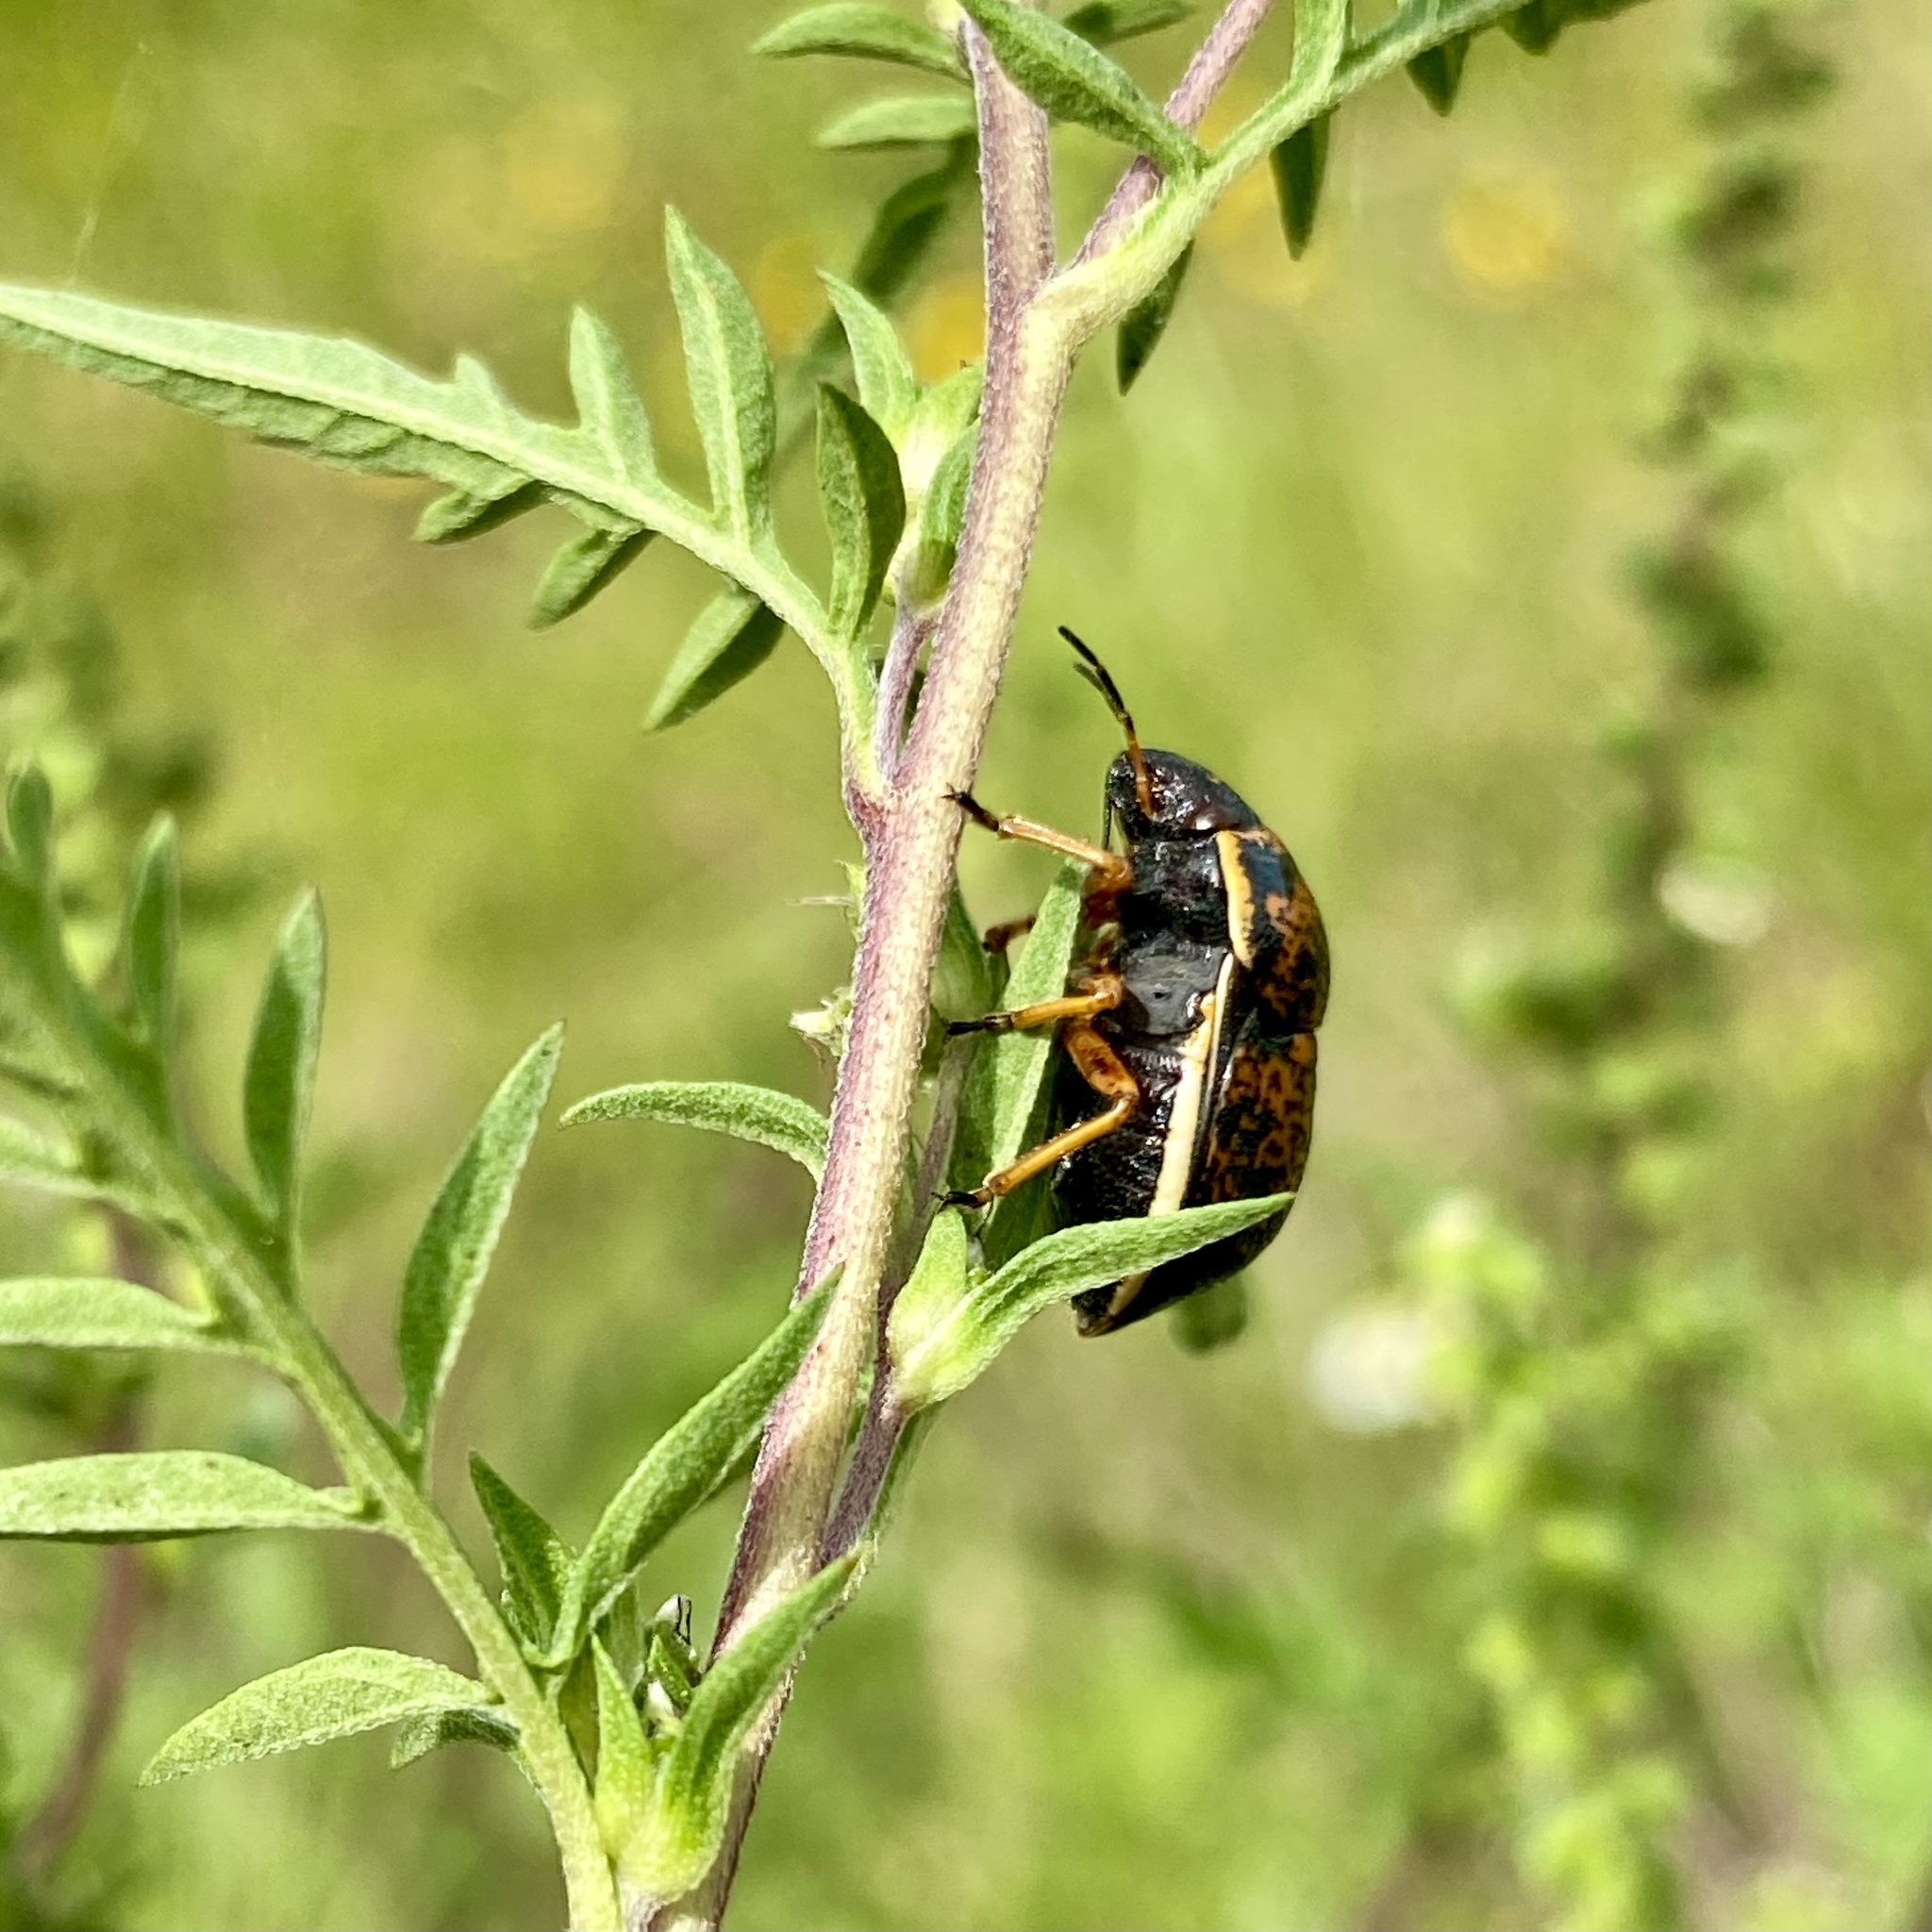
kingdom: Animalia
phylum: Arthropoda
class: Insecta
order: Hemiptera
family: Scutelleridae
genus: Orsilochides
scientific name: Orsilochides guttata
